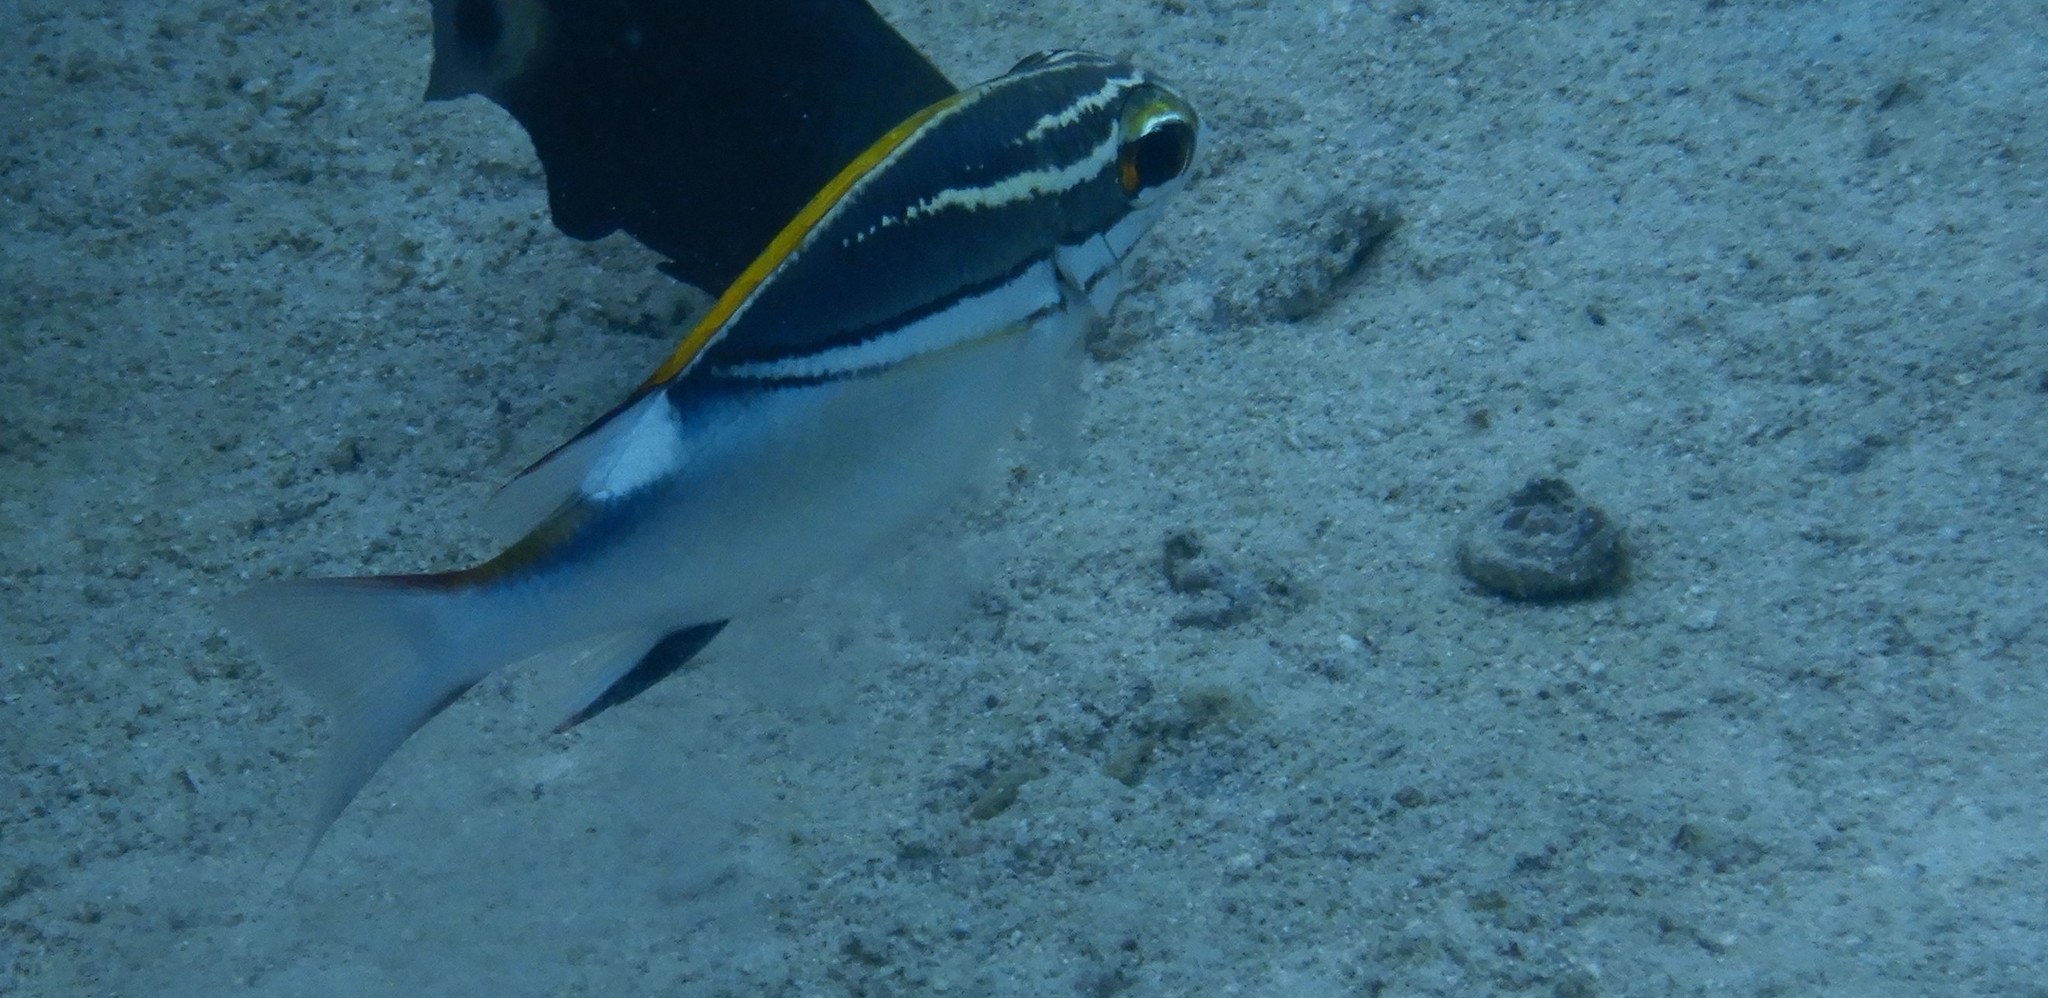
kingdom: Animalia
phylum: Chordata
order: Perciformes
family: Nemipteridae
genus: Scolopsis
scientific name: Scolopsis bilineata
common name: Two-lined monocle bream
